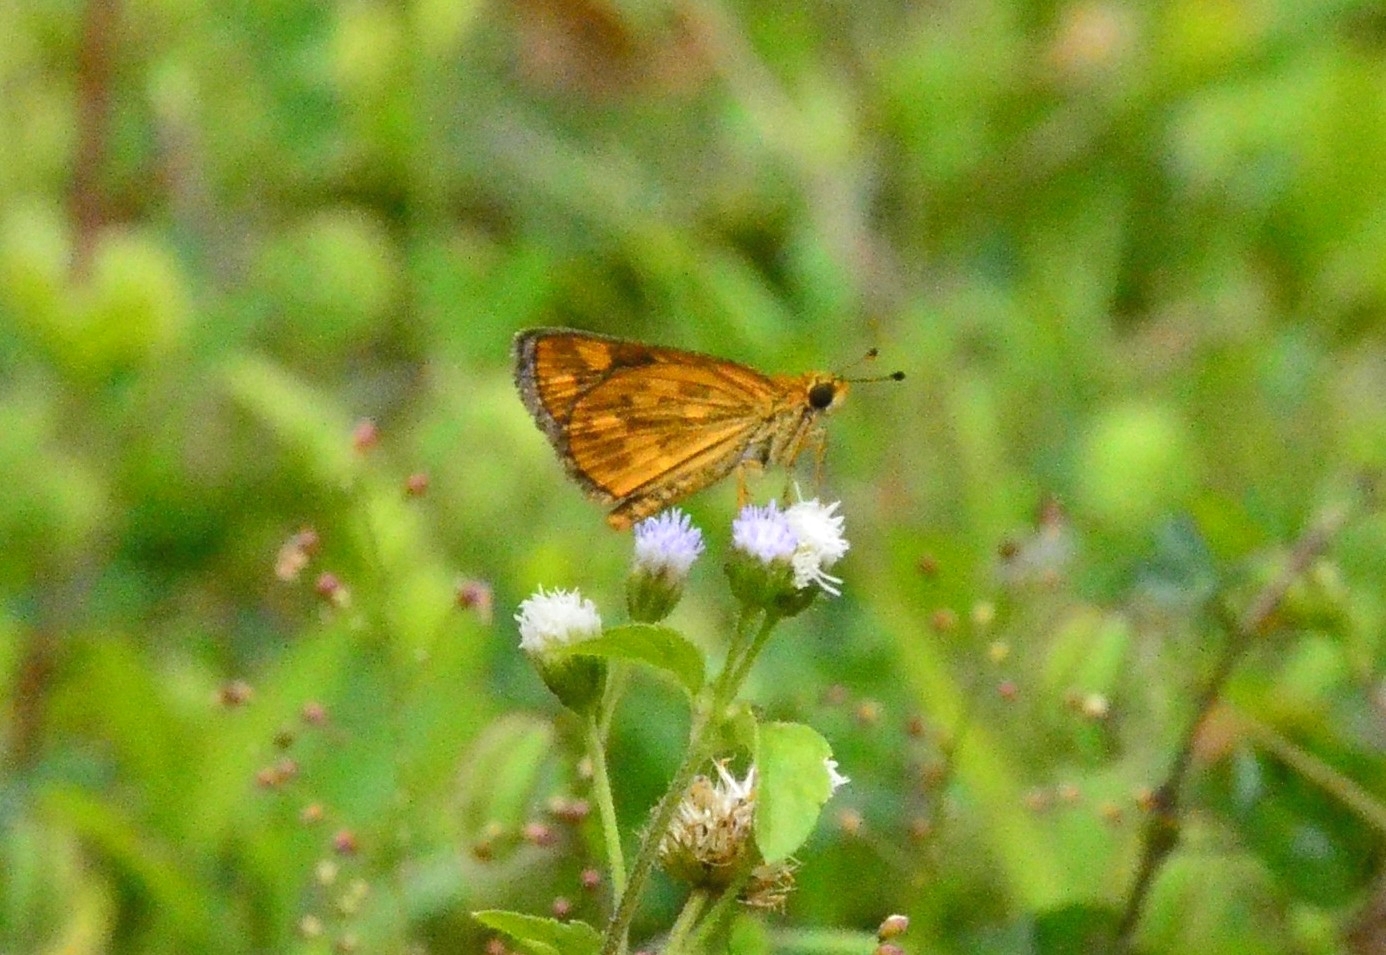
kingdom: Animalia
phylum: Arthropoda
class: Insecta
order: Lepidoptera
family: Hesperiidae
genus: Taractrocera
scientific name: Taractrocera ceramas
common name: Tamil grass dart
